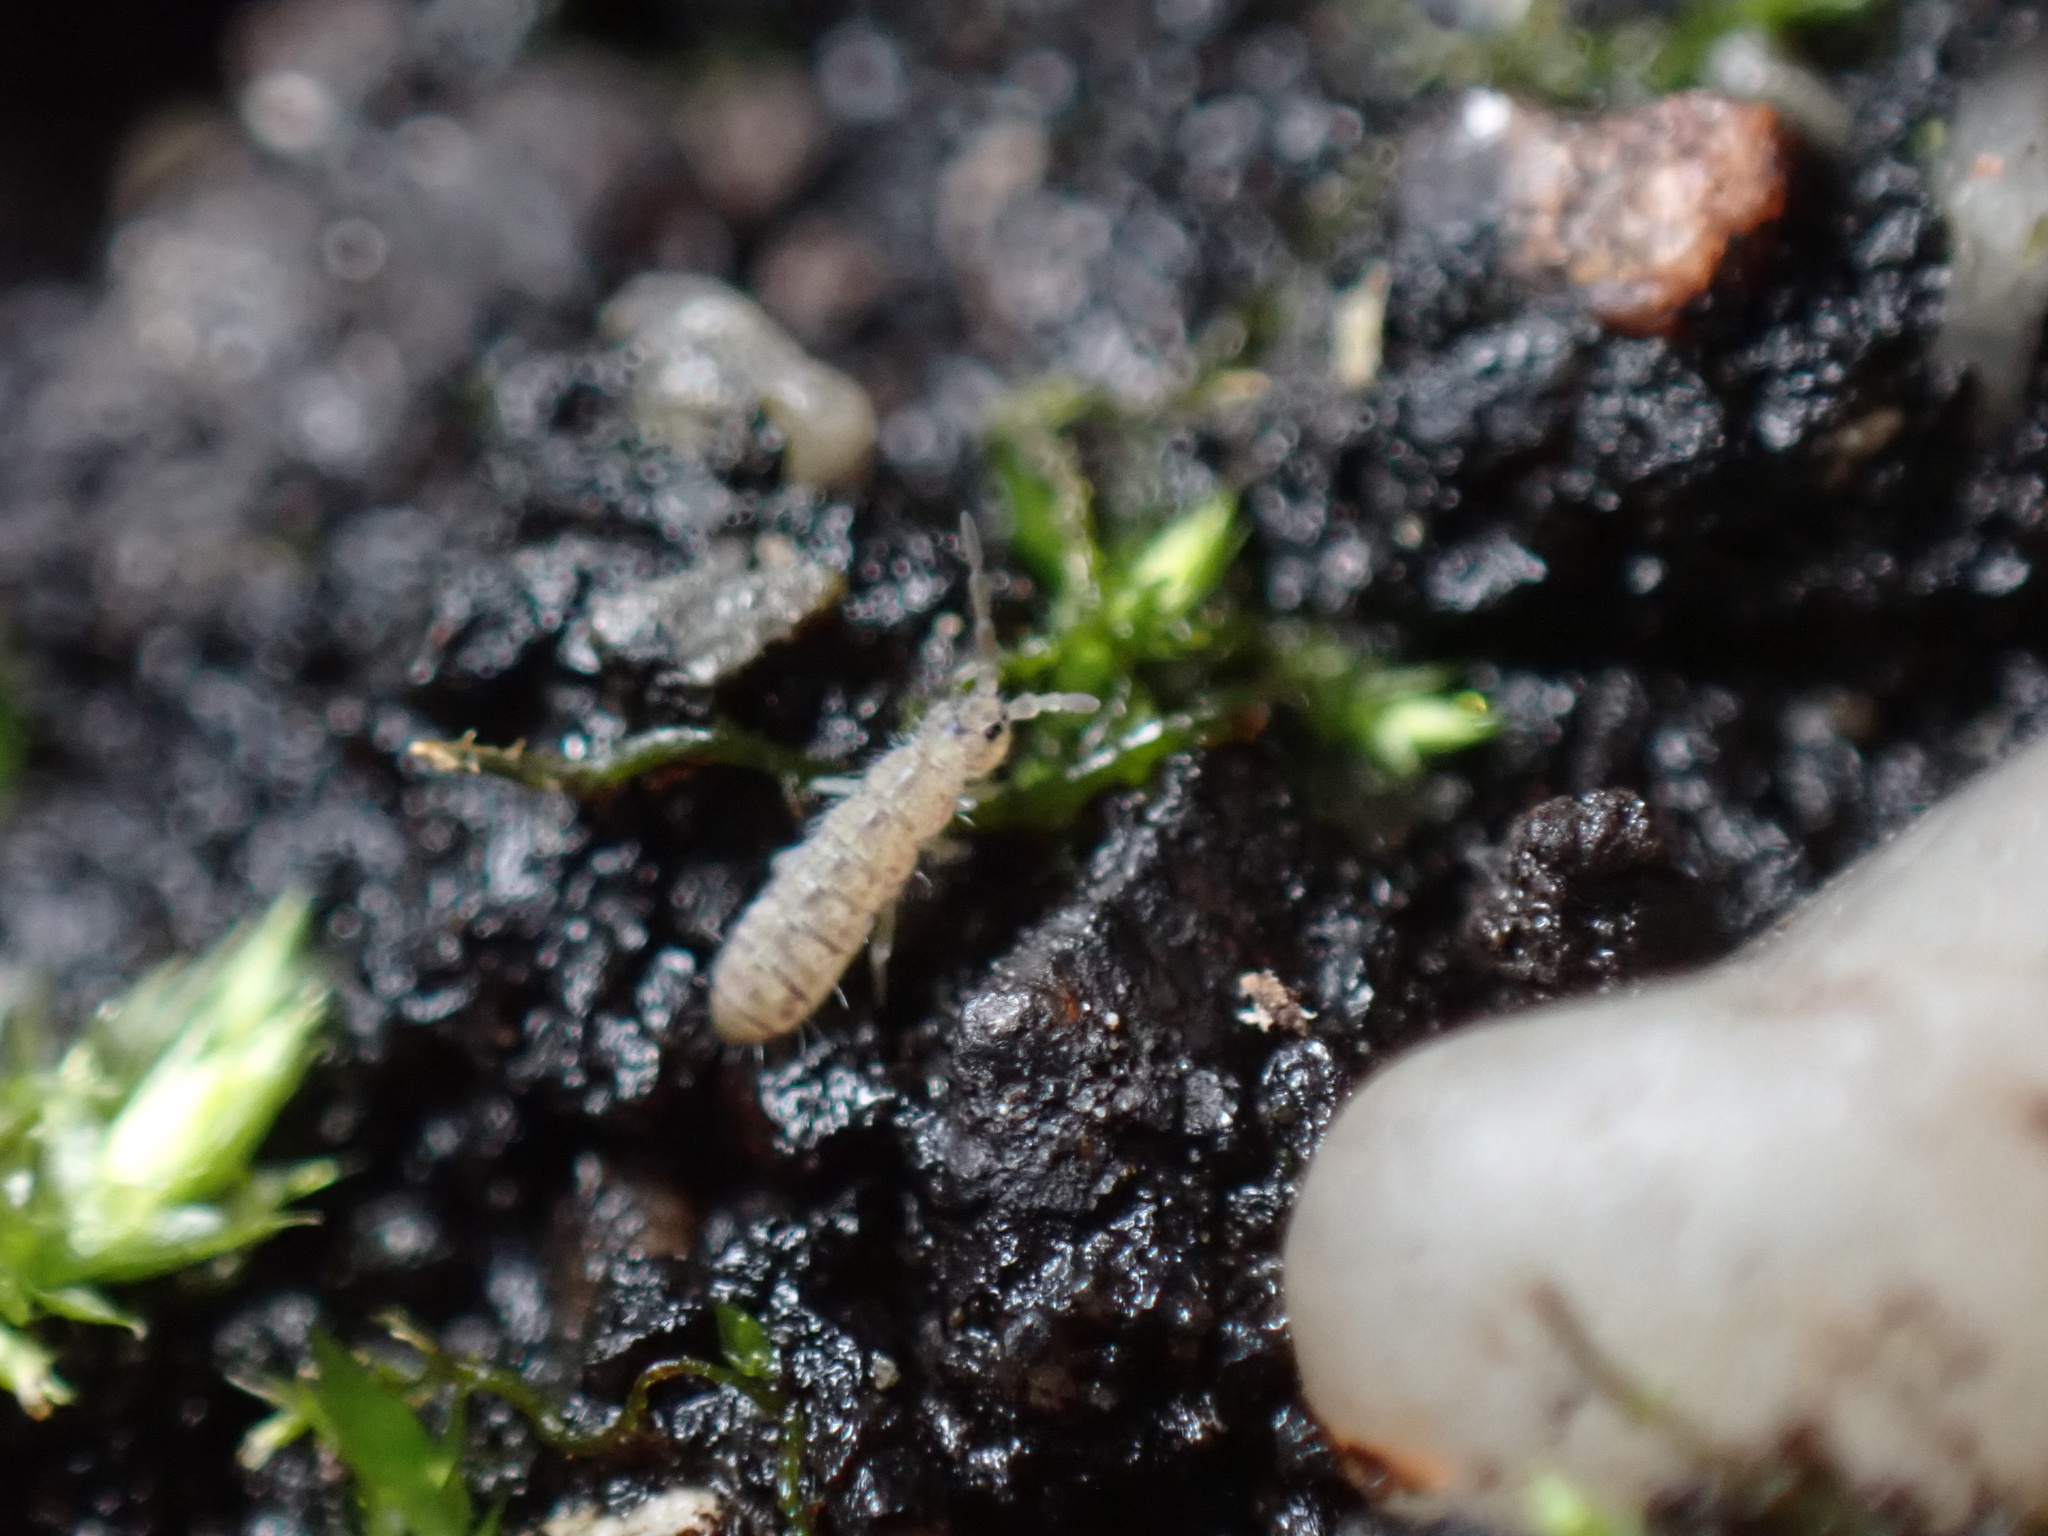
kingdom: Animalia
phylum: Arthropoda
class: Collembola
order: Entomobryomorpha
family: Isotomidae
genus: Isotoma
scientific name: Isotoma delta
